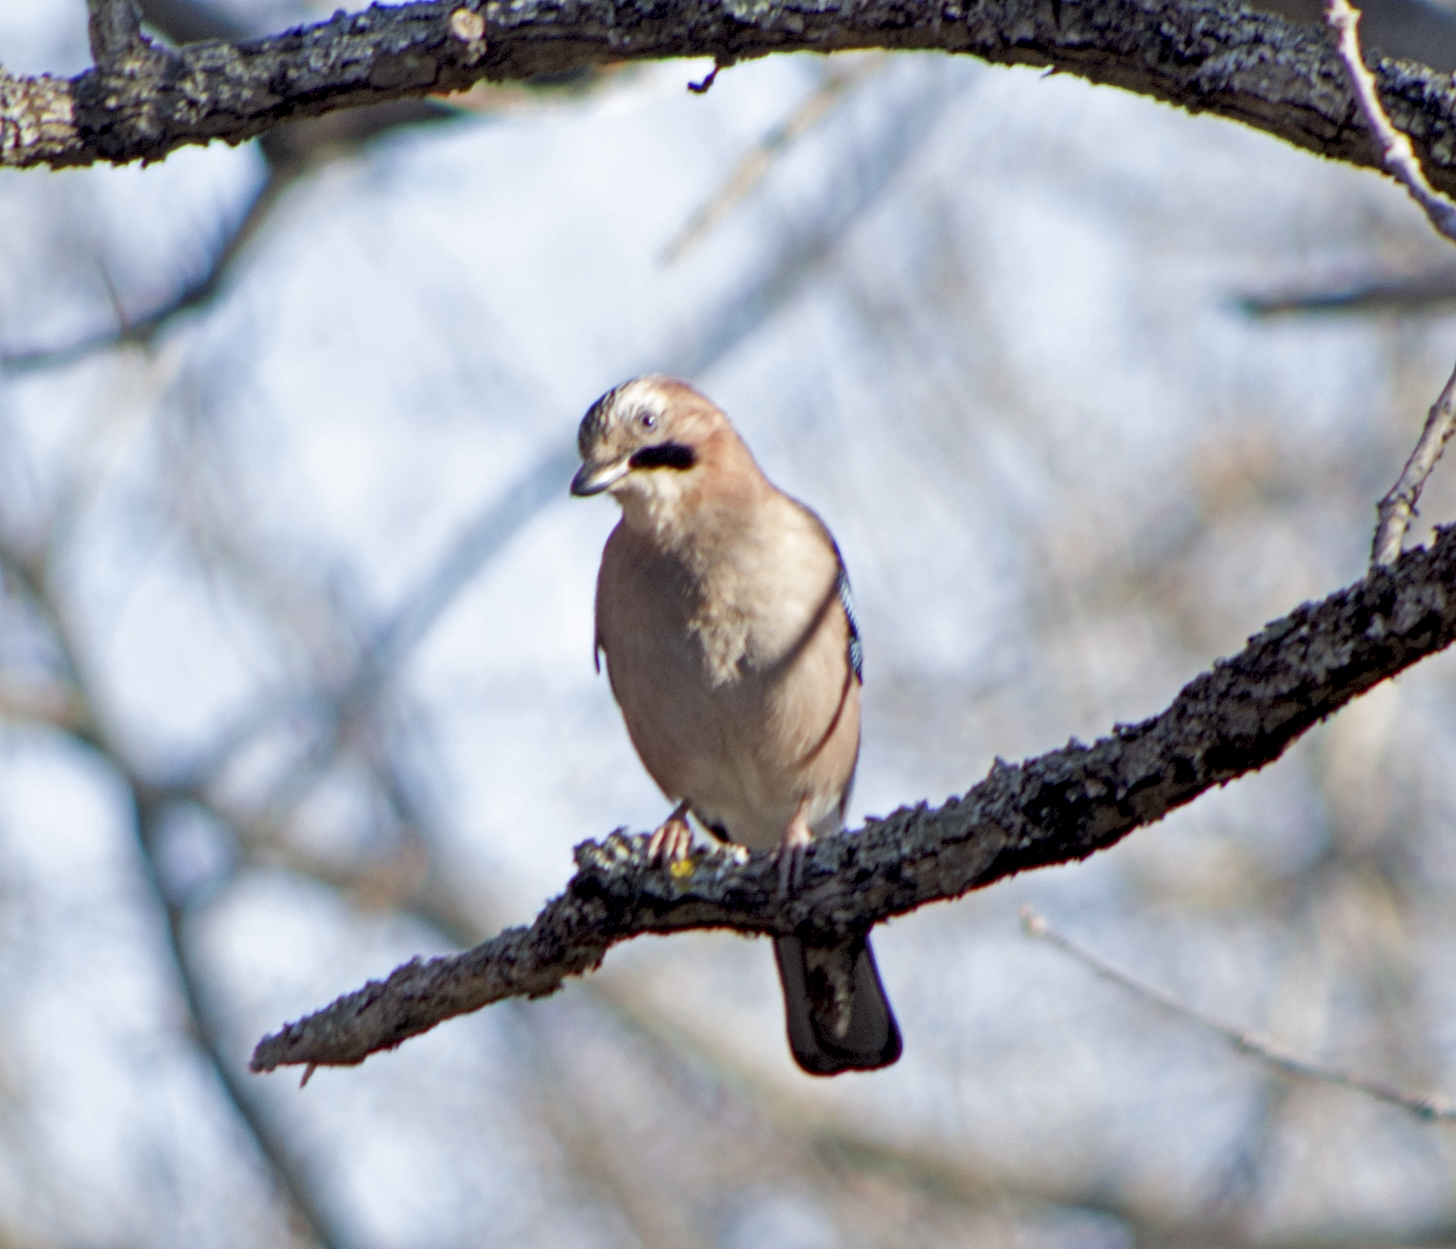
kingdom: Animalia
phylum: Chordata
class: Aves
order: Passeriformes
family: Corvidae
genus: Garrulus
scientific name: Garrulus glandarius
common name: Eurasian jay
